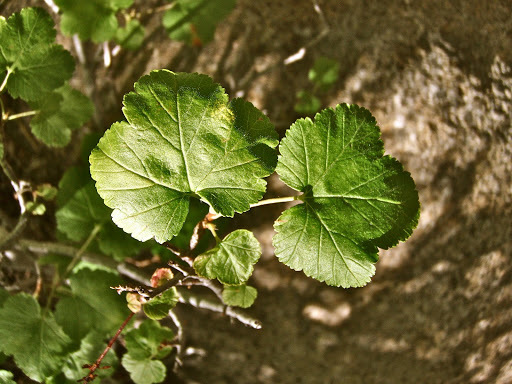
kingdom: Plantae
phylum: Tracheophyta
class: Magnoliopsida
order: Saxifragales
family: Grossulariaceae
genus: Ribes
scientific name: Ribes nevadense
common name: Mountain pink currant
